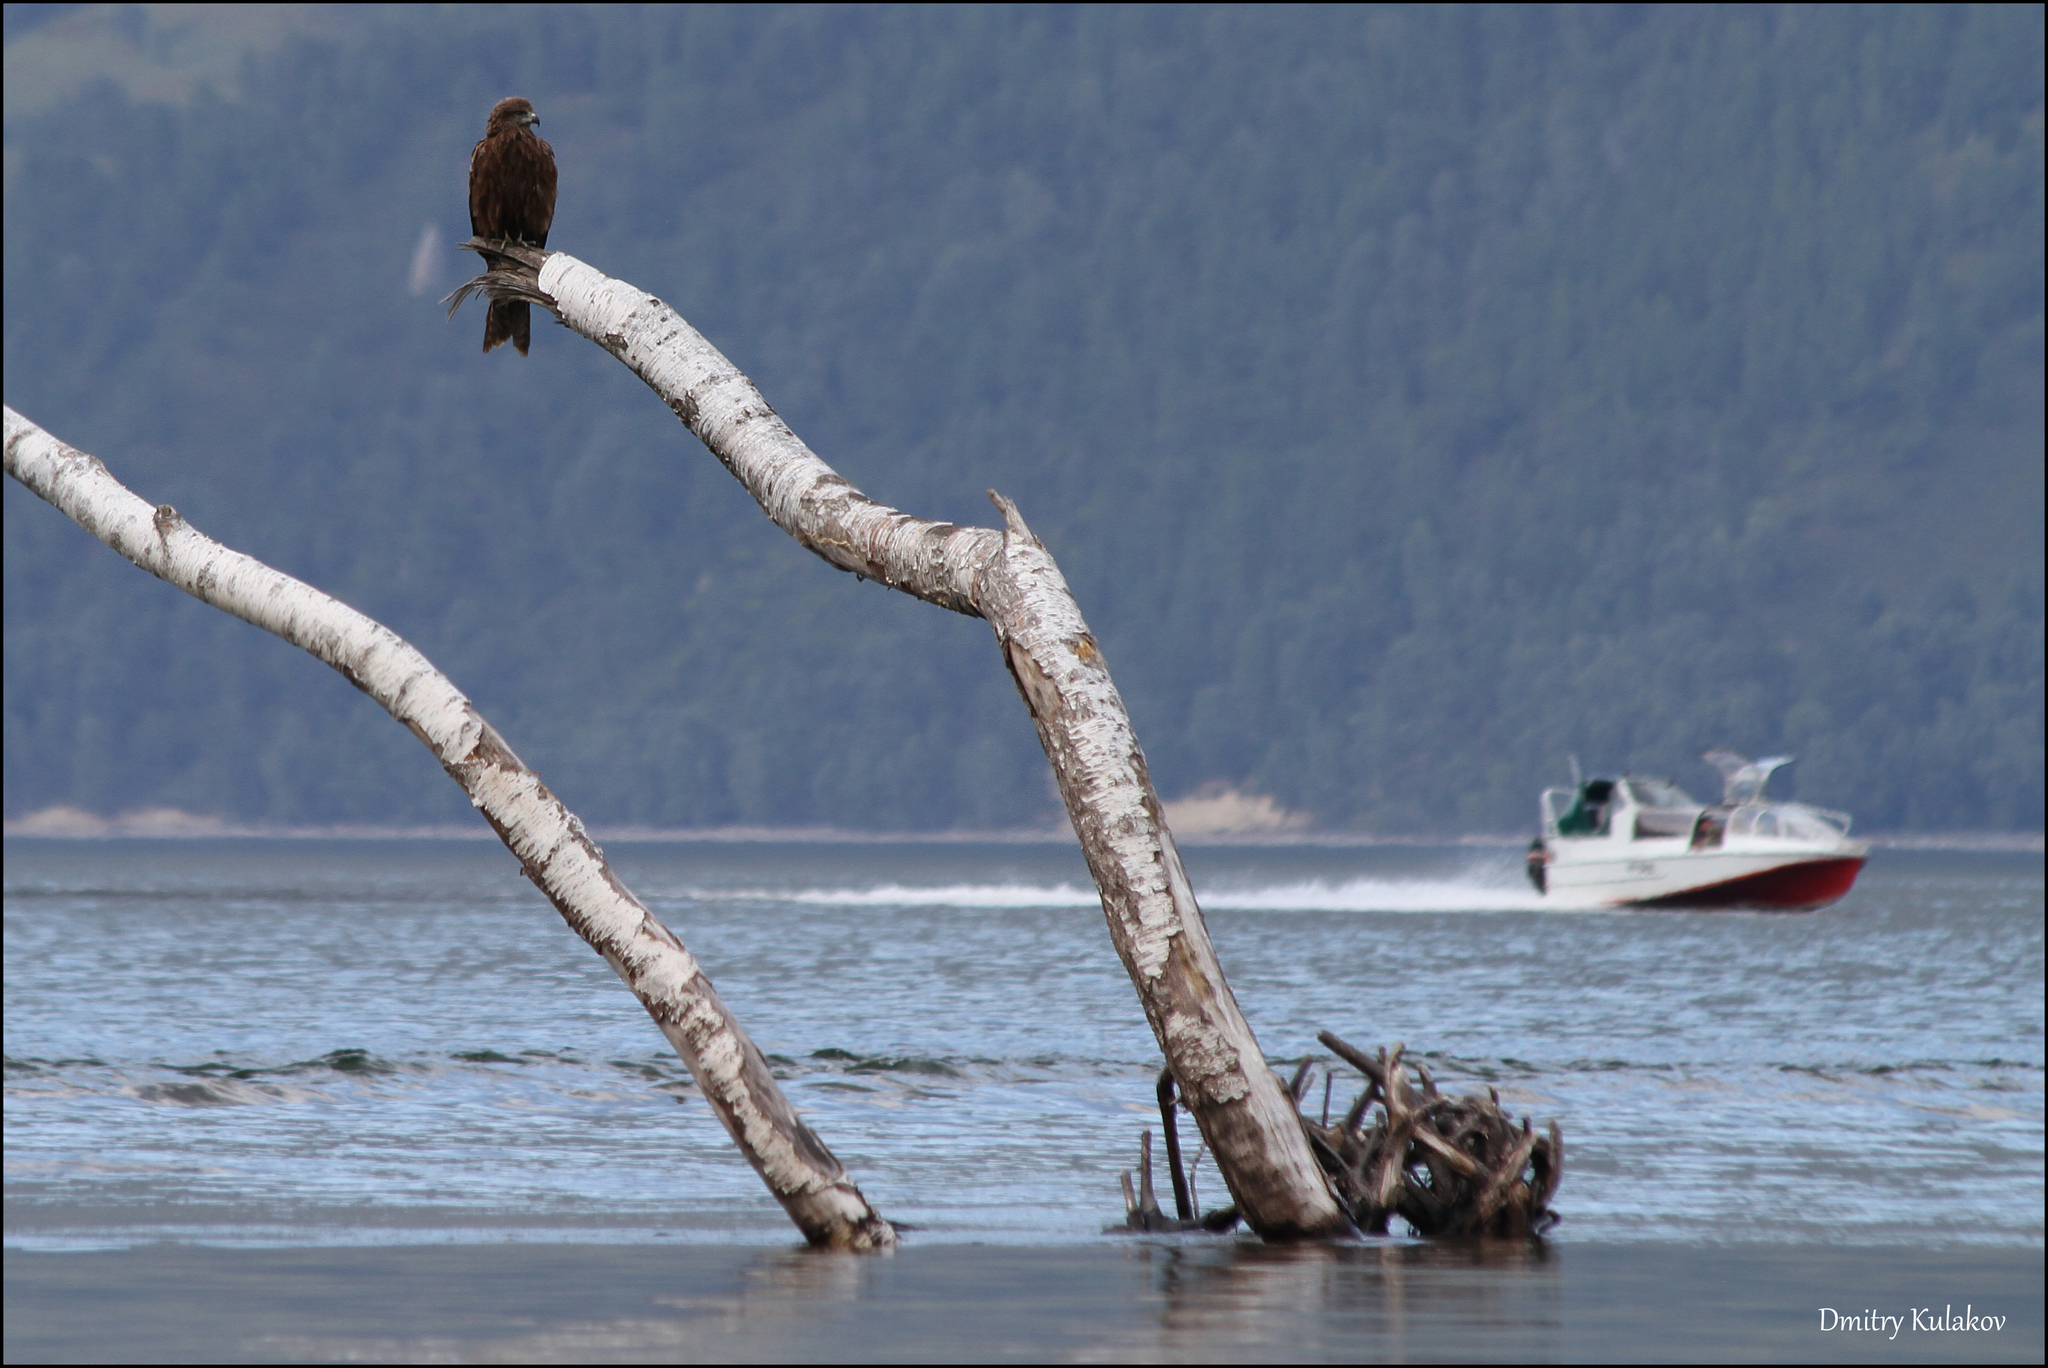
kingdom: Animalia
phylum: Chordata
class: Aves
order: Accipitriformes
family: Accipitridae
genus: Milvus
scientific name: Milvus migrans
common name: Black kite
